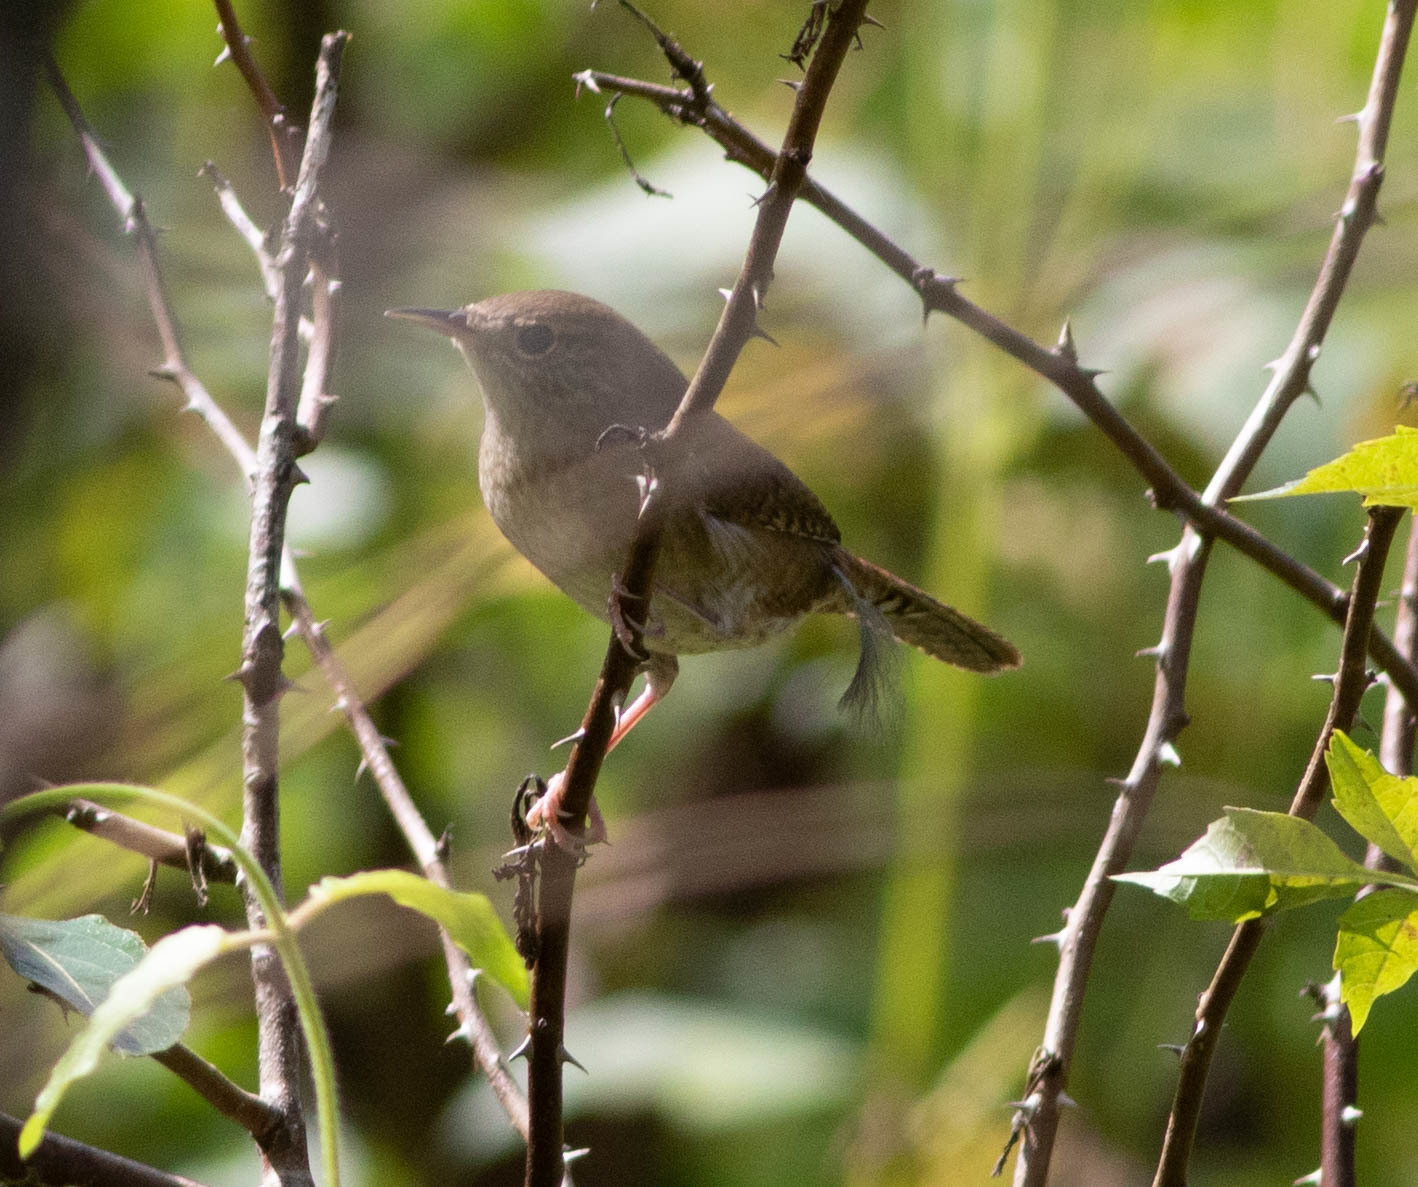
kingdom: Animalia
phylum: Chordata
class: Aves
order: Passeriformes
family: Troglodytidae
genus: Troglodytes
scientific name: Troglodytes aedon
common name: House wren
